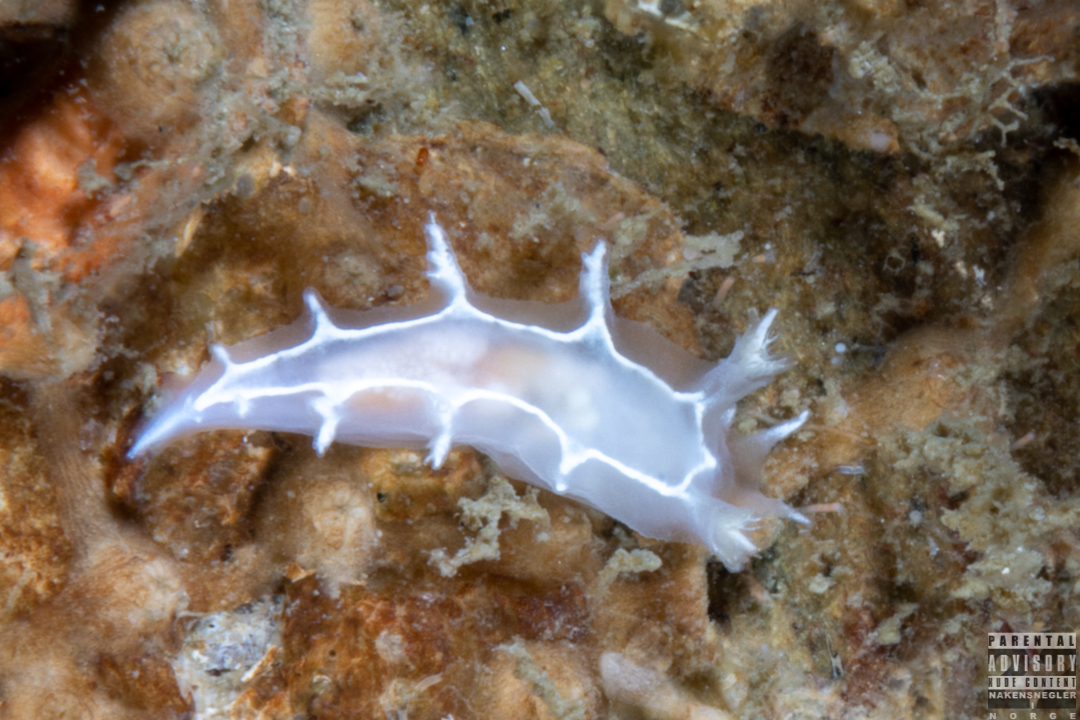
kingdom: Animalia
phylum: Mollusca
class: Gastropoda
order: Nudibranchia
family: Tritoniidae
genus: Duvaucelia
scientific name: Duvaucelia lineata
